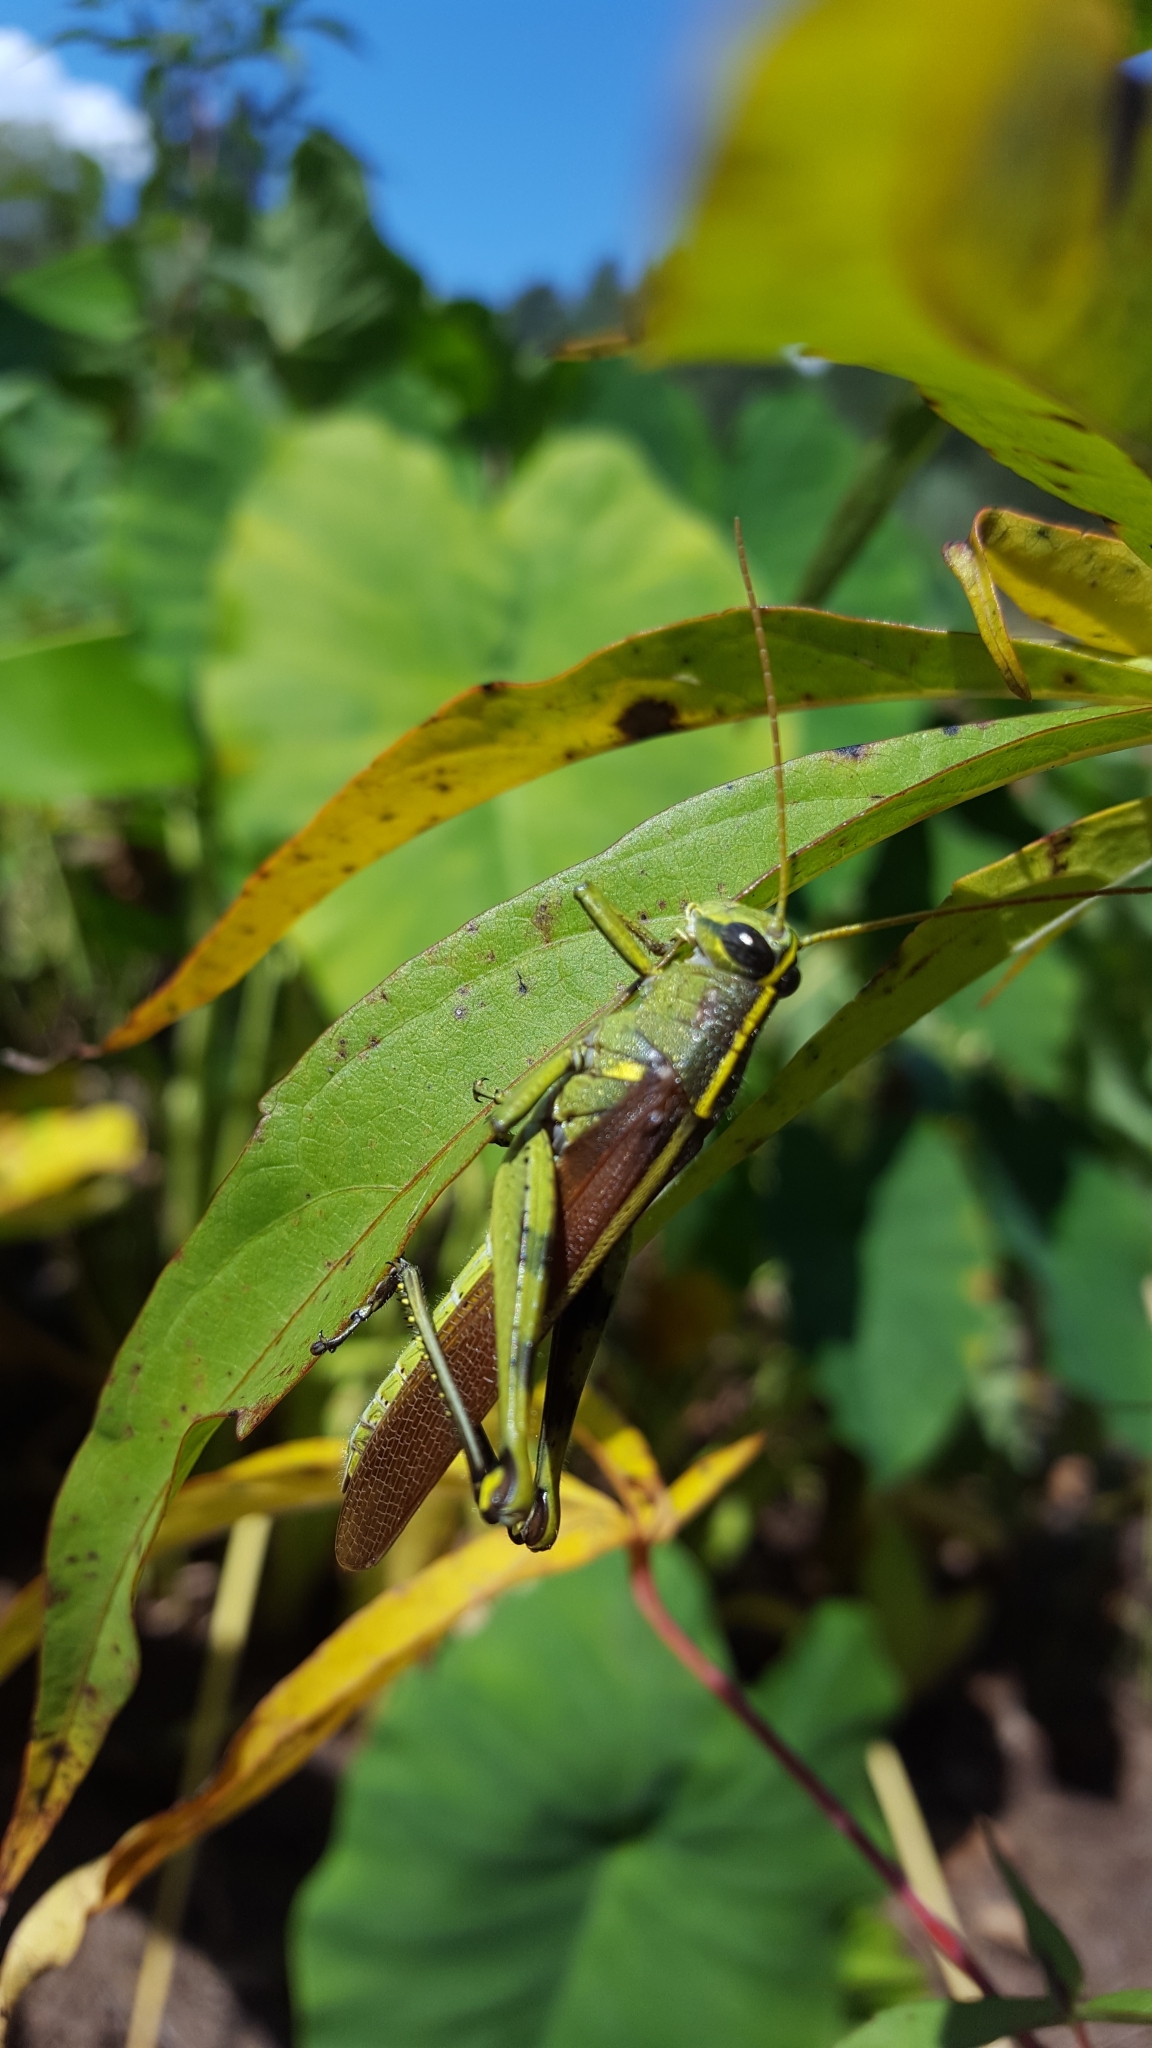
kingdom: Animalia
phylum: Arthropoda
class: Insecta
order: Orthoptera
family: Acrididae
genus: Schistocerca
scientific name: Schistocerca obscura
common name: Obscure bird grasshopper
